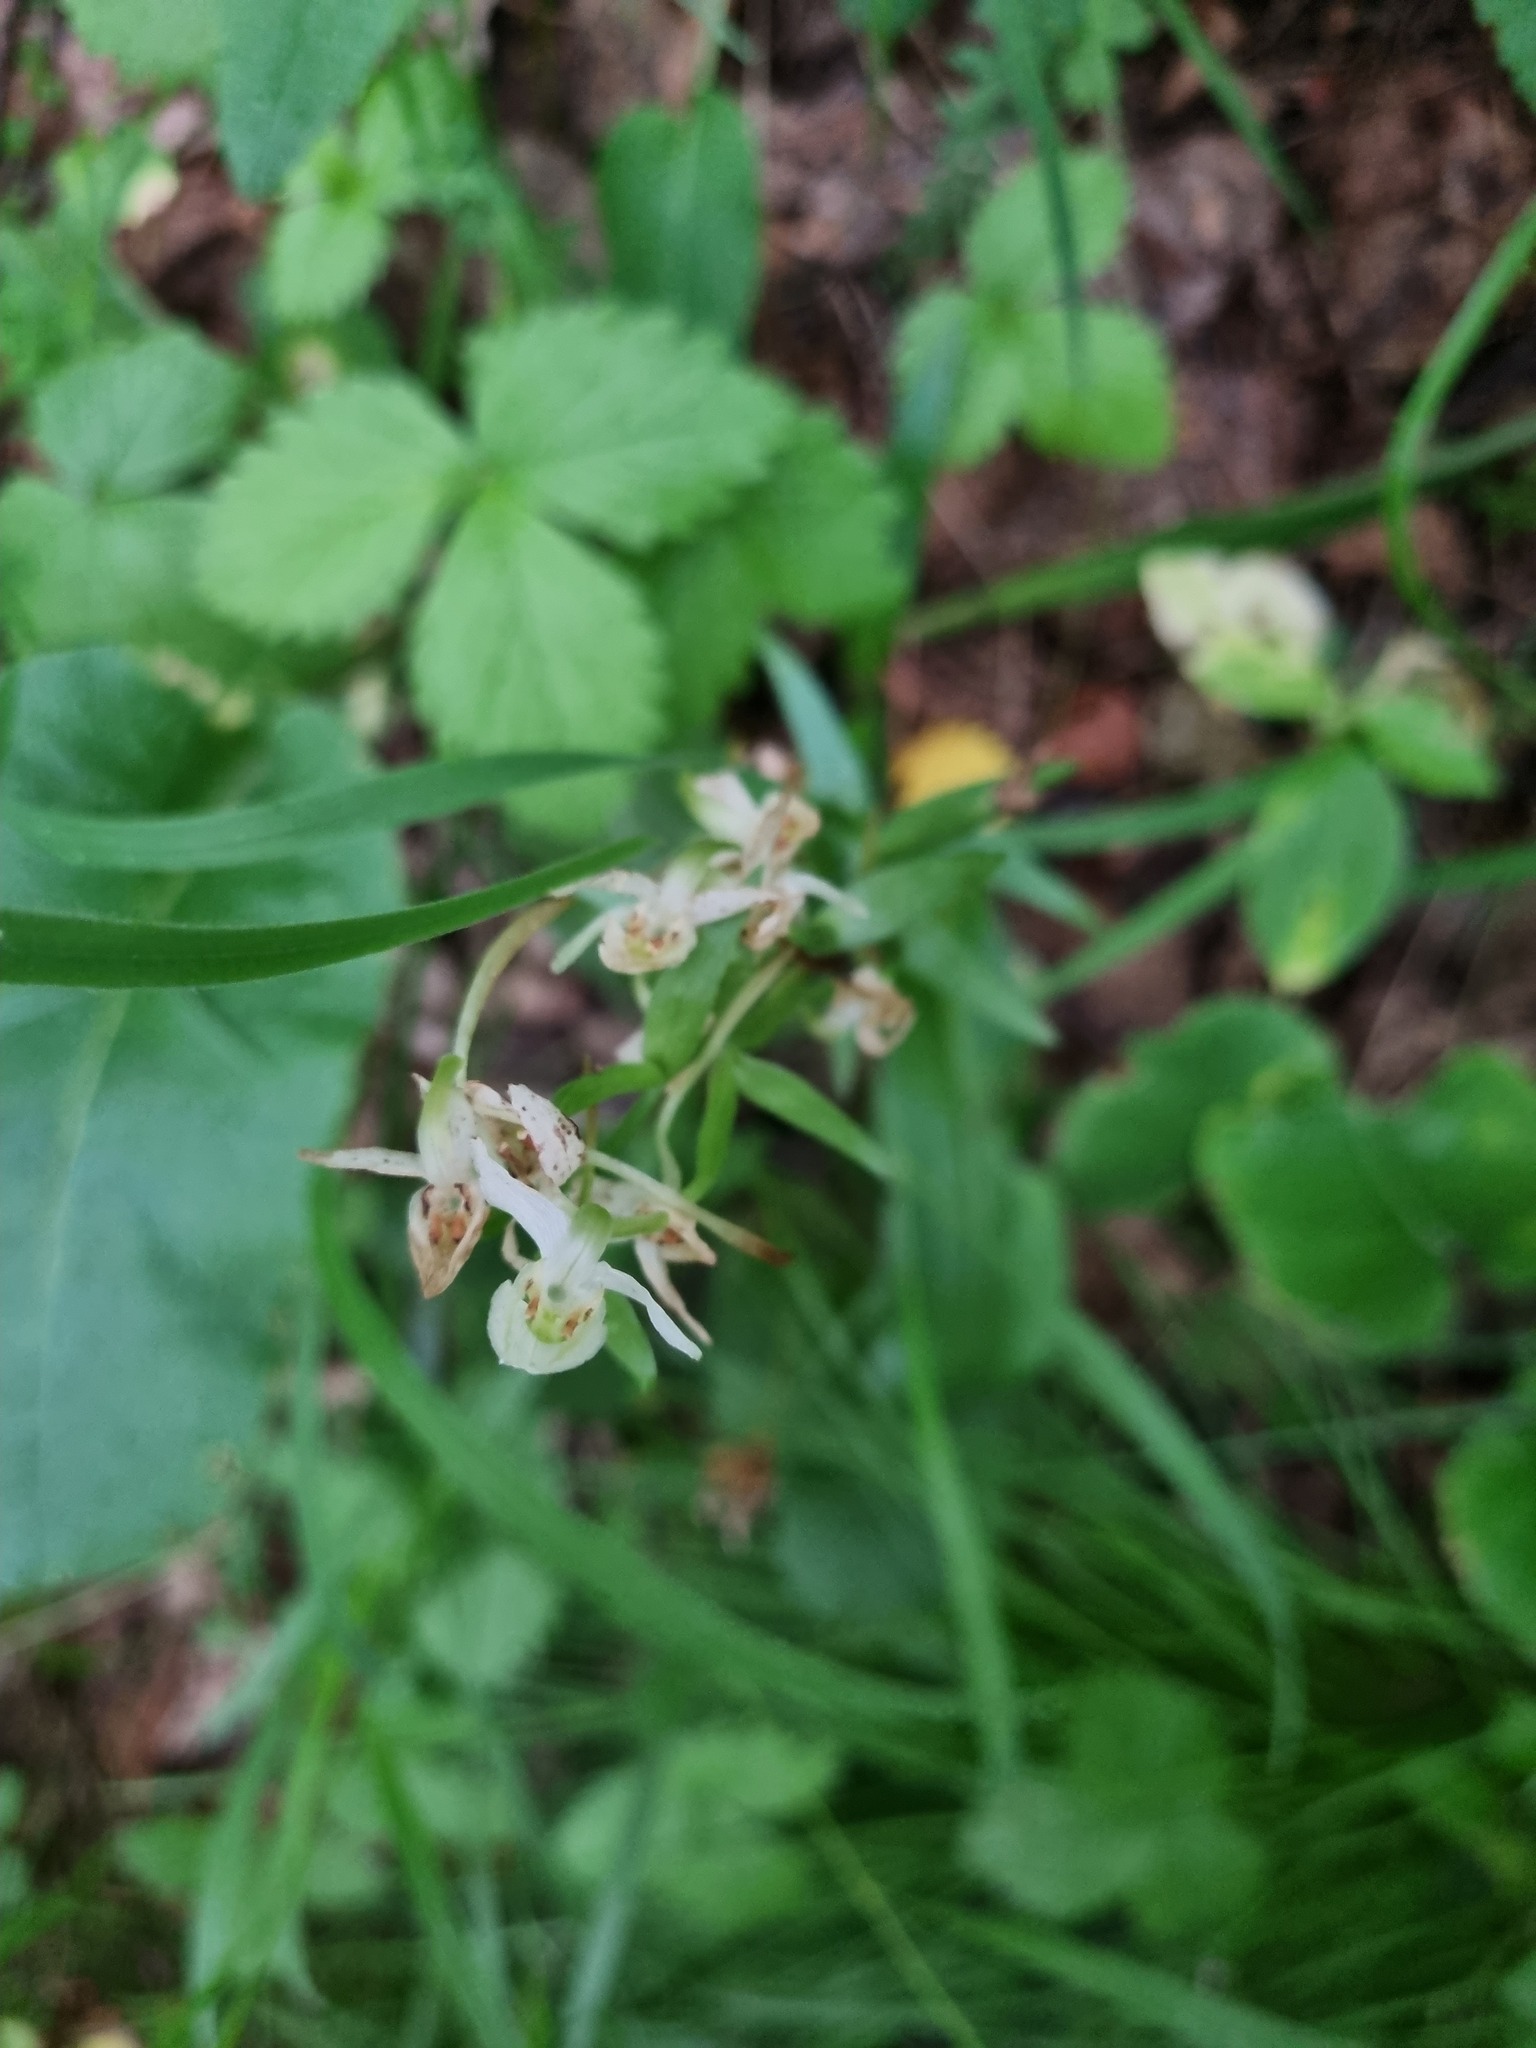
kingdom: Plantae
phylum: Tracheophyta
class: Liliopsida
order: Asparagales
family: Orchidaceae
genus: Platanthera
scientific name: Platanthera chlorantha
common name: Greater butterfly-orchid
